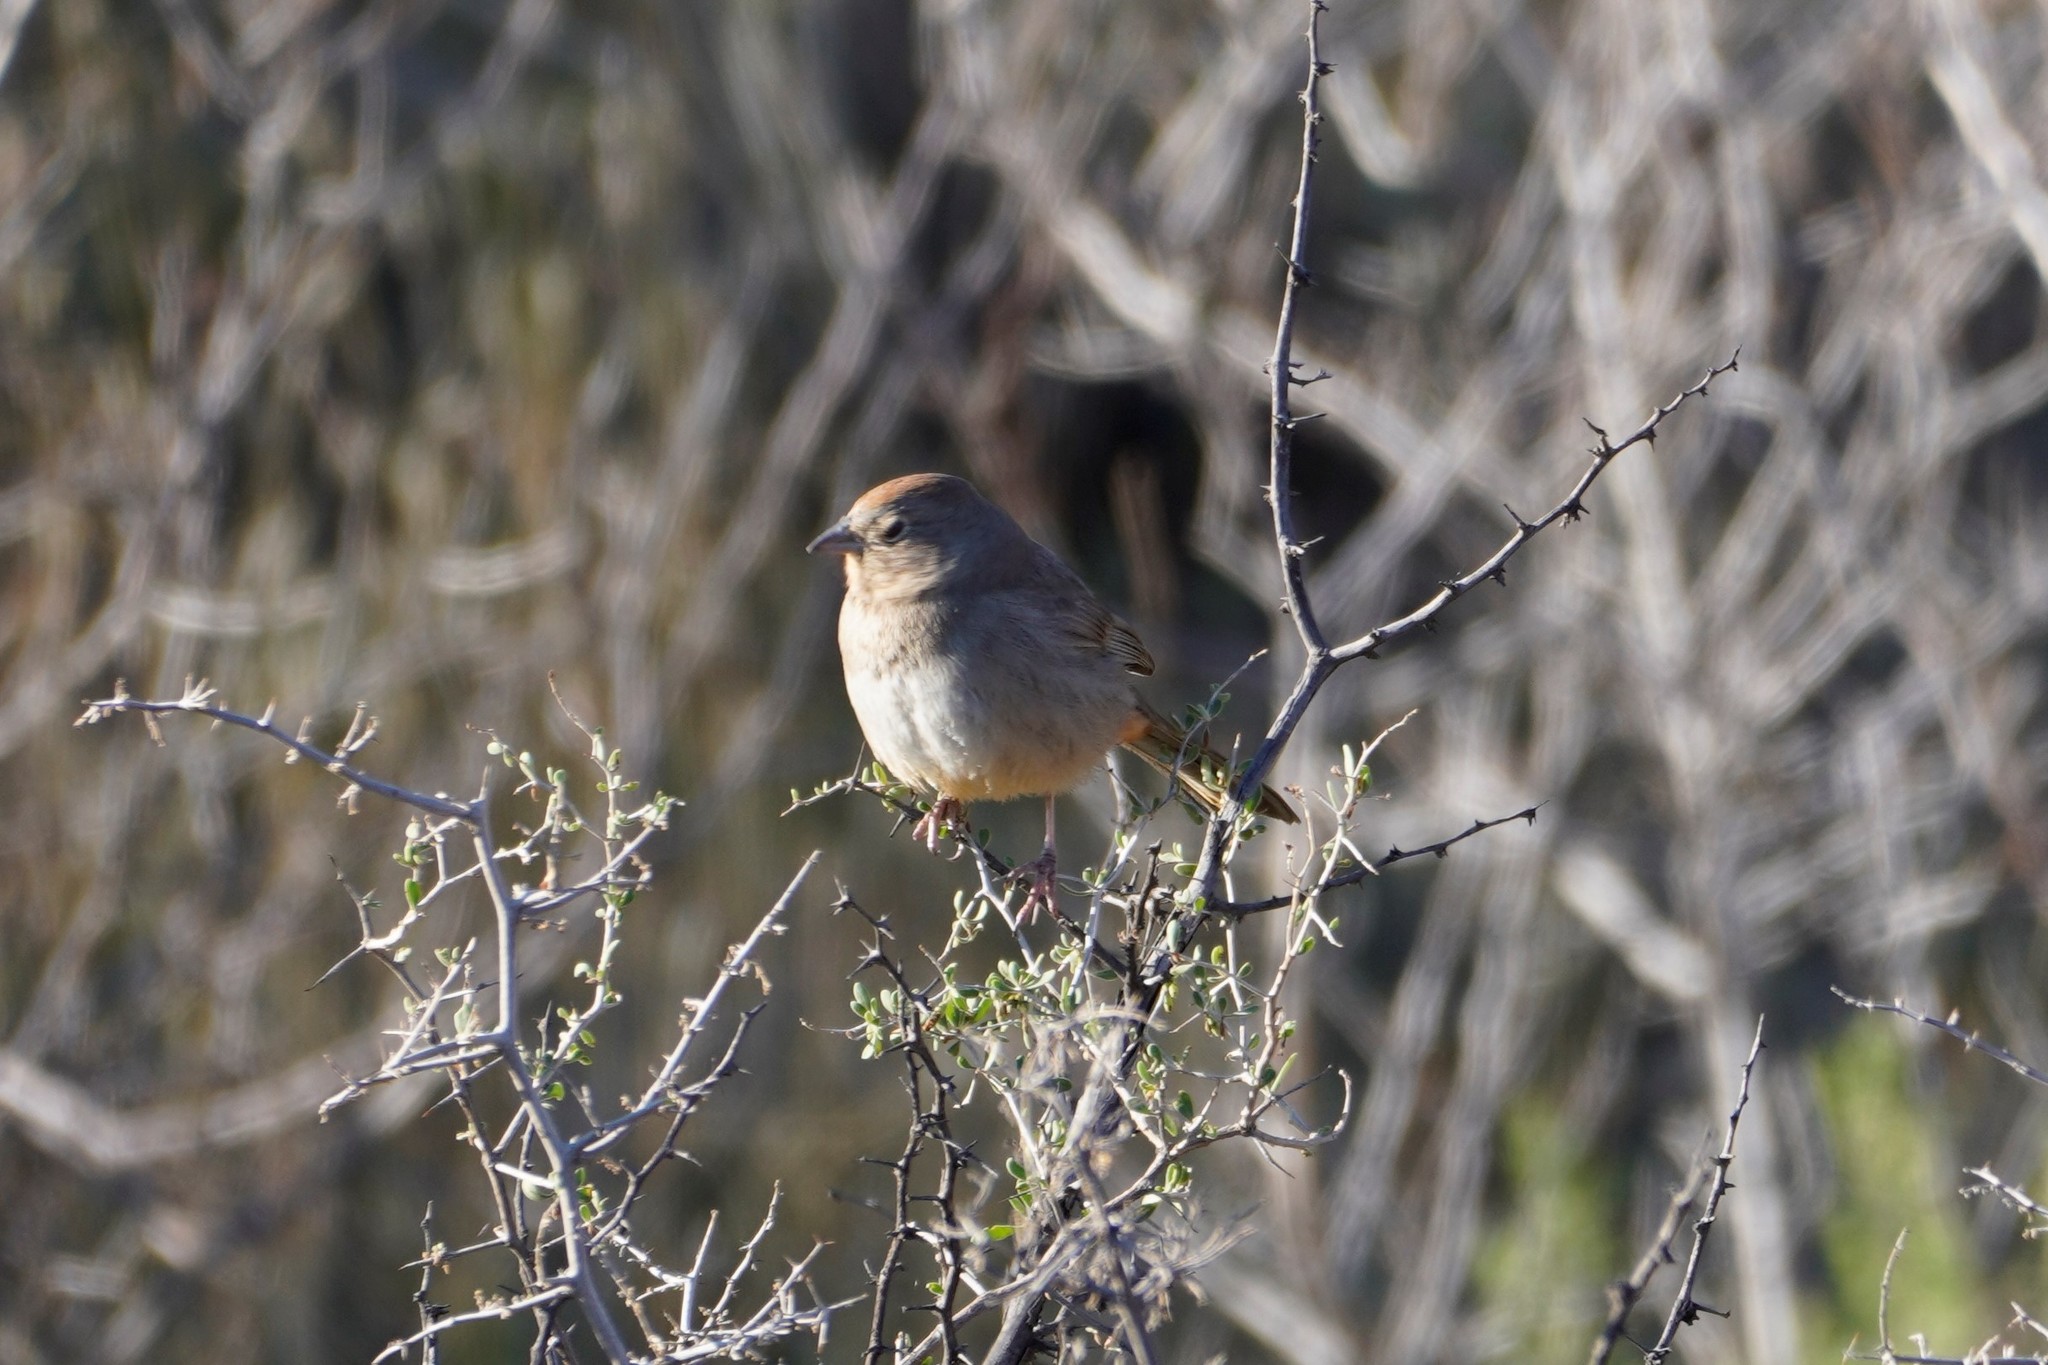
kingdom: Animalia
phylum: Chordata
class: Aves
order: Passeriformes
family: Passerellidae
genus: Melozone
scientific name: Melozone fusca
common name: Canyon towhee
